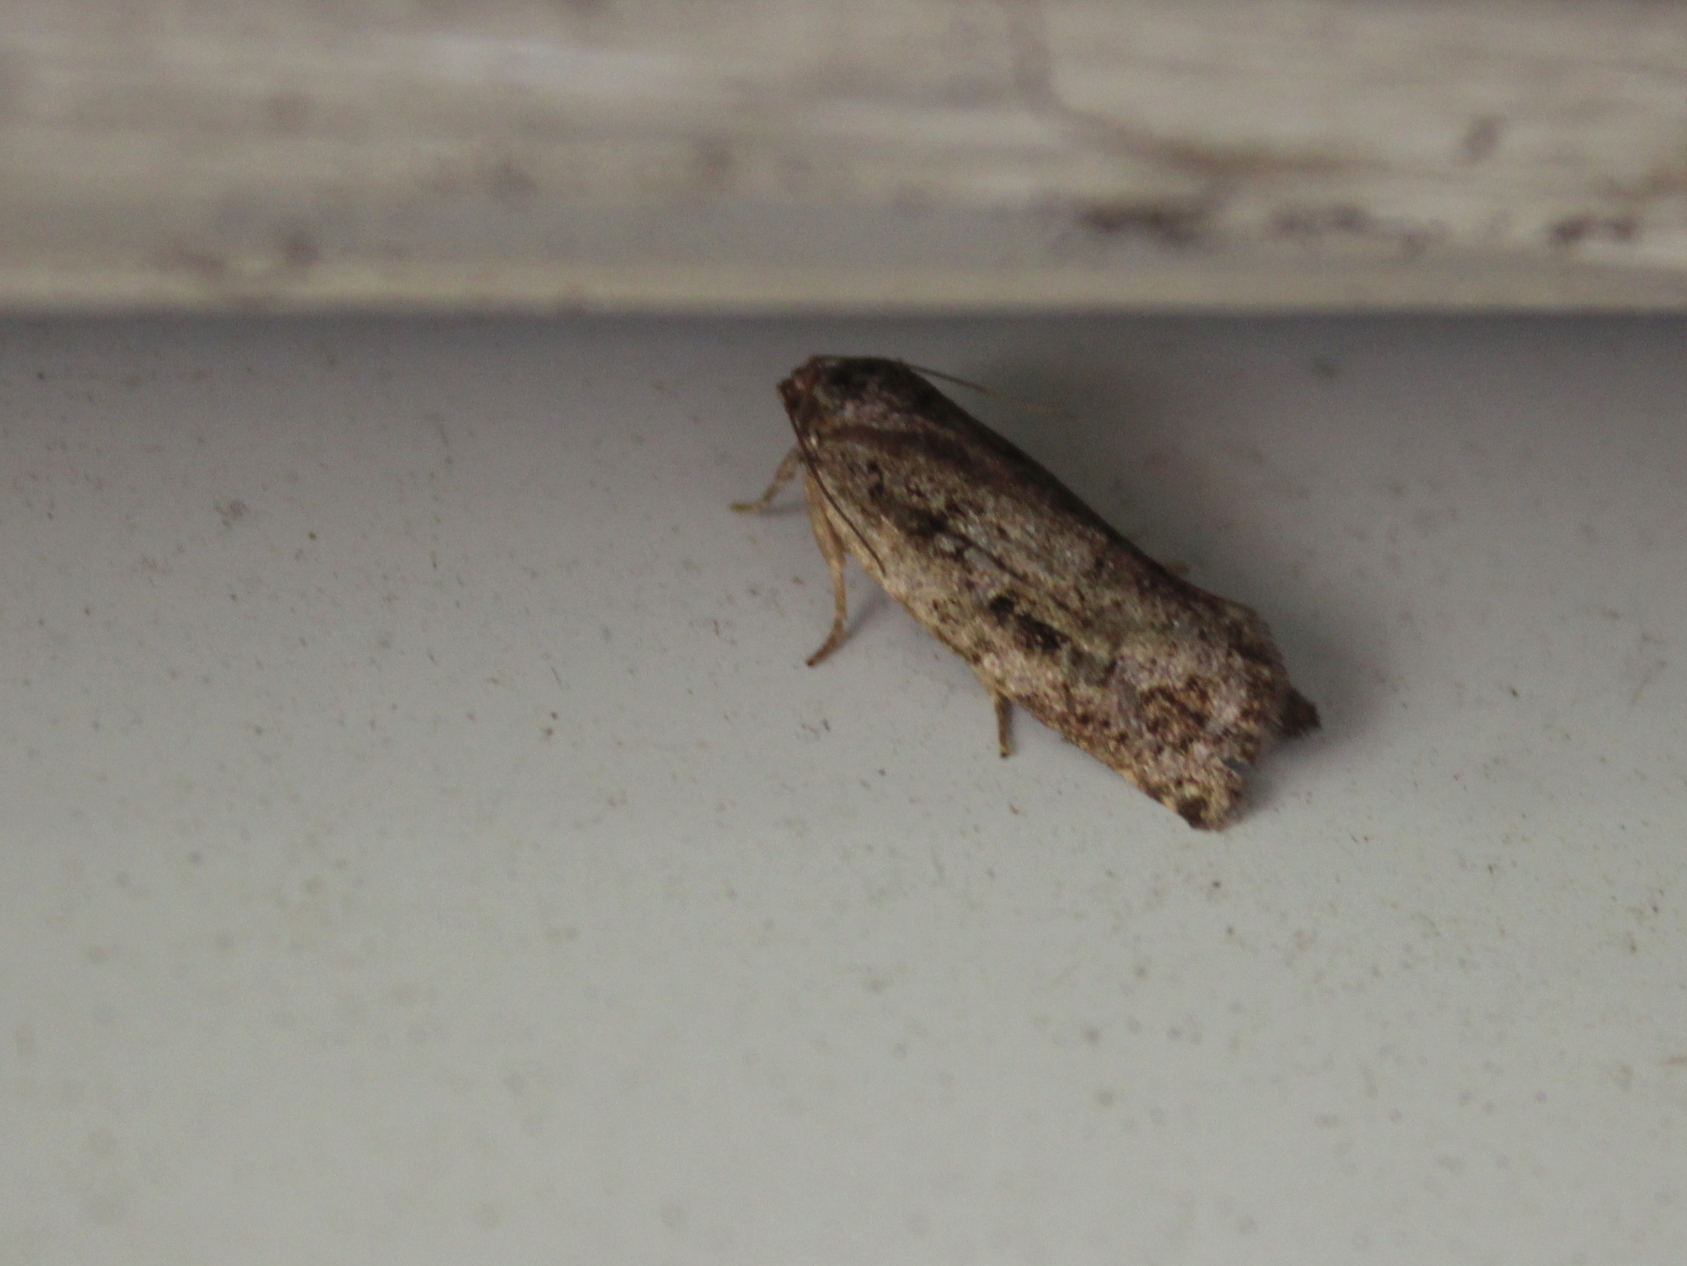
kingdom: Animalia
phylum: Arthropoda
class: Insecta
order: Lepidoptera
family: Tortricidae
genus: Choristoneura
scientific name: Choristoneura fumiferana
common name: Spruce budworm
